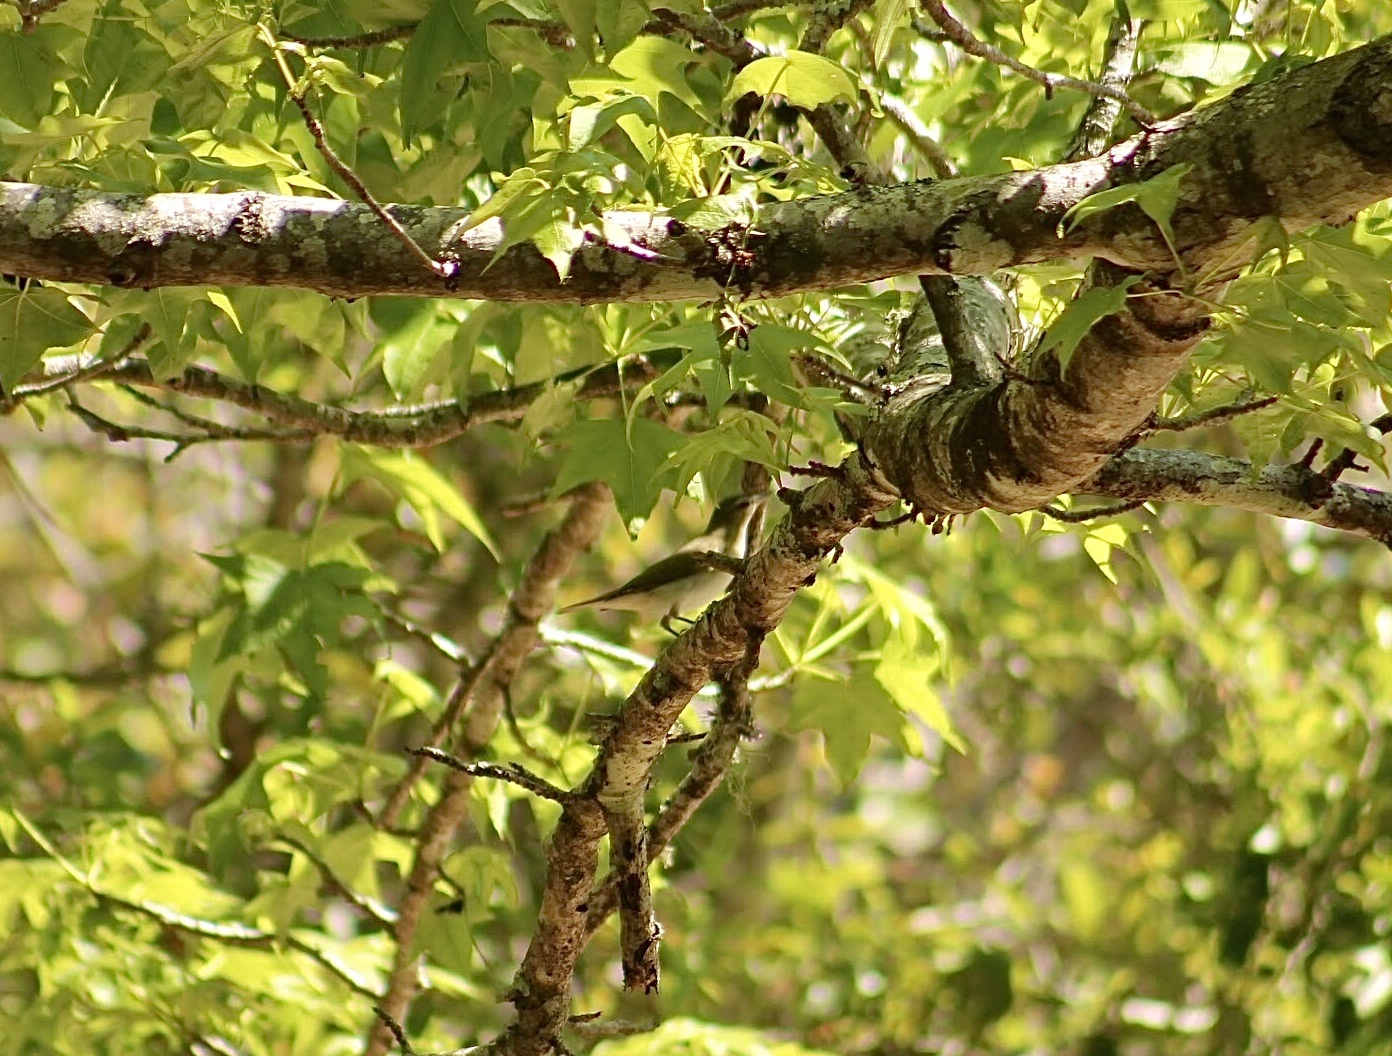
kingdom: Animalia
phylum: Chordata
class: Aves
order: Passeriformes
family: Vireonidae
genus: Vireo
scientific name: Vireo olivaceus
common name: Red-eyed vireo
